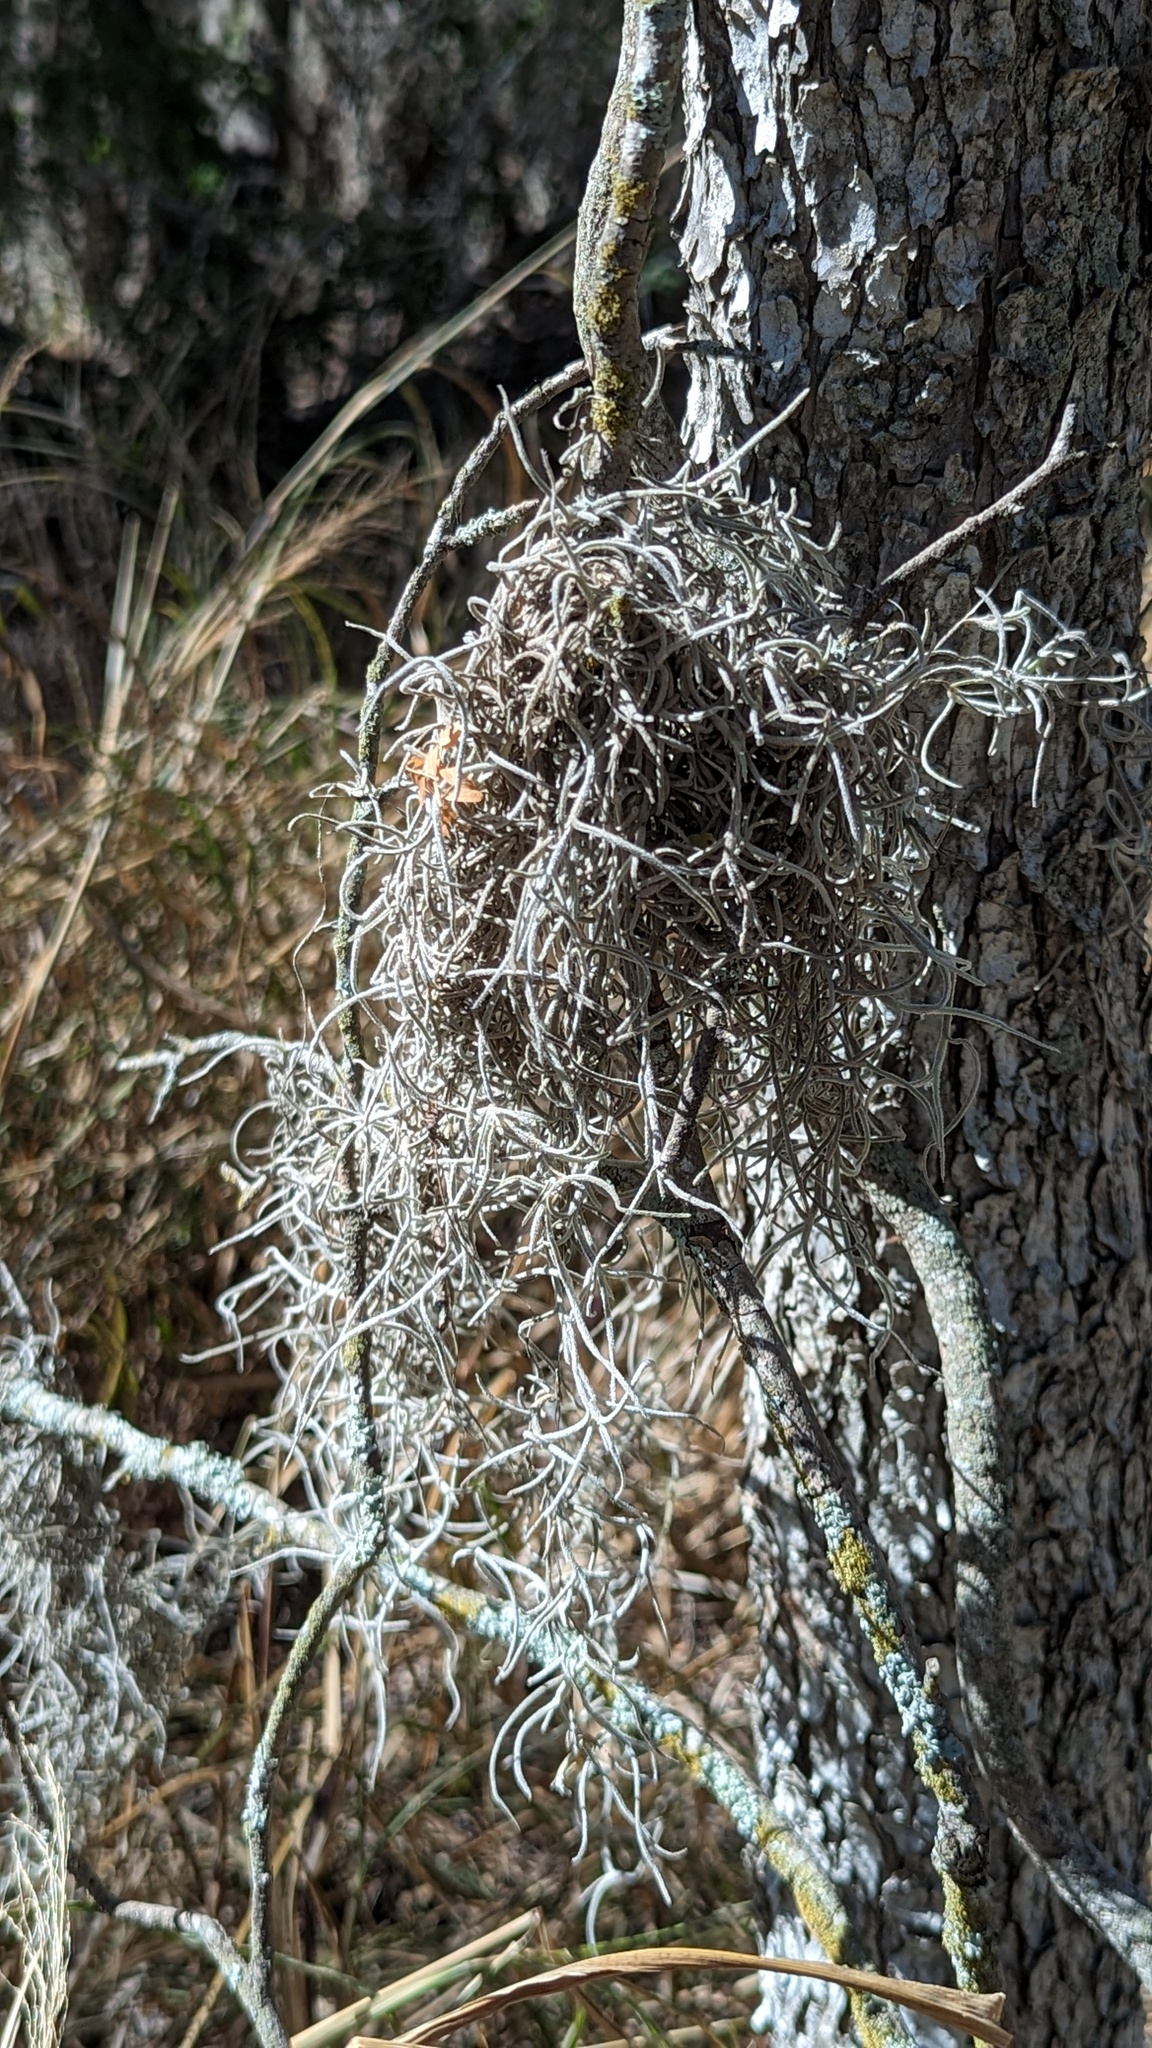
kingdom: Plantae
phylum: Tracheophyta
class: Liliopsida
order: Poales
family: Bromeliaceae
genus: Tillandsia
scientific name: Tillandsia usneoides
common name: Spanish moss
